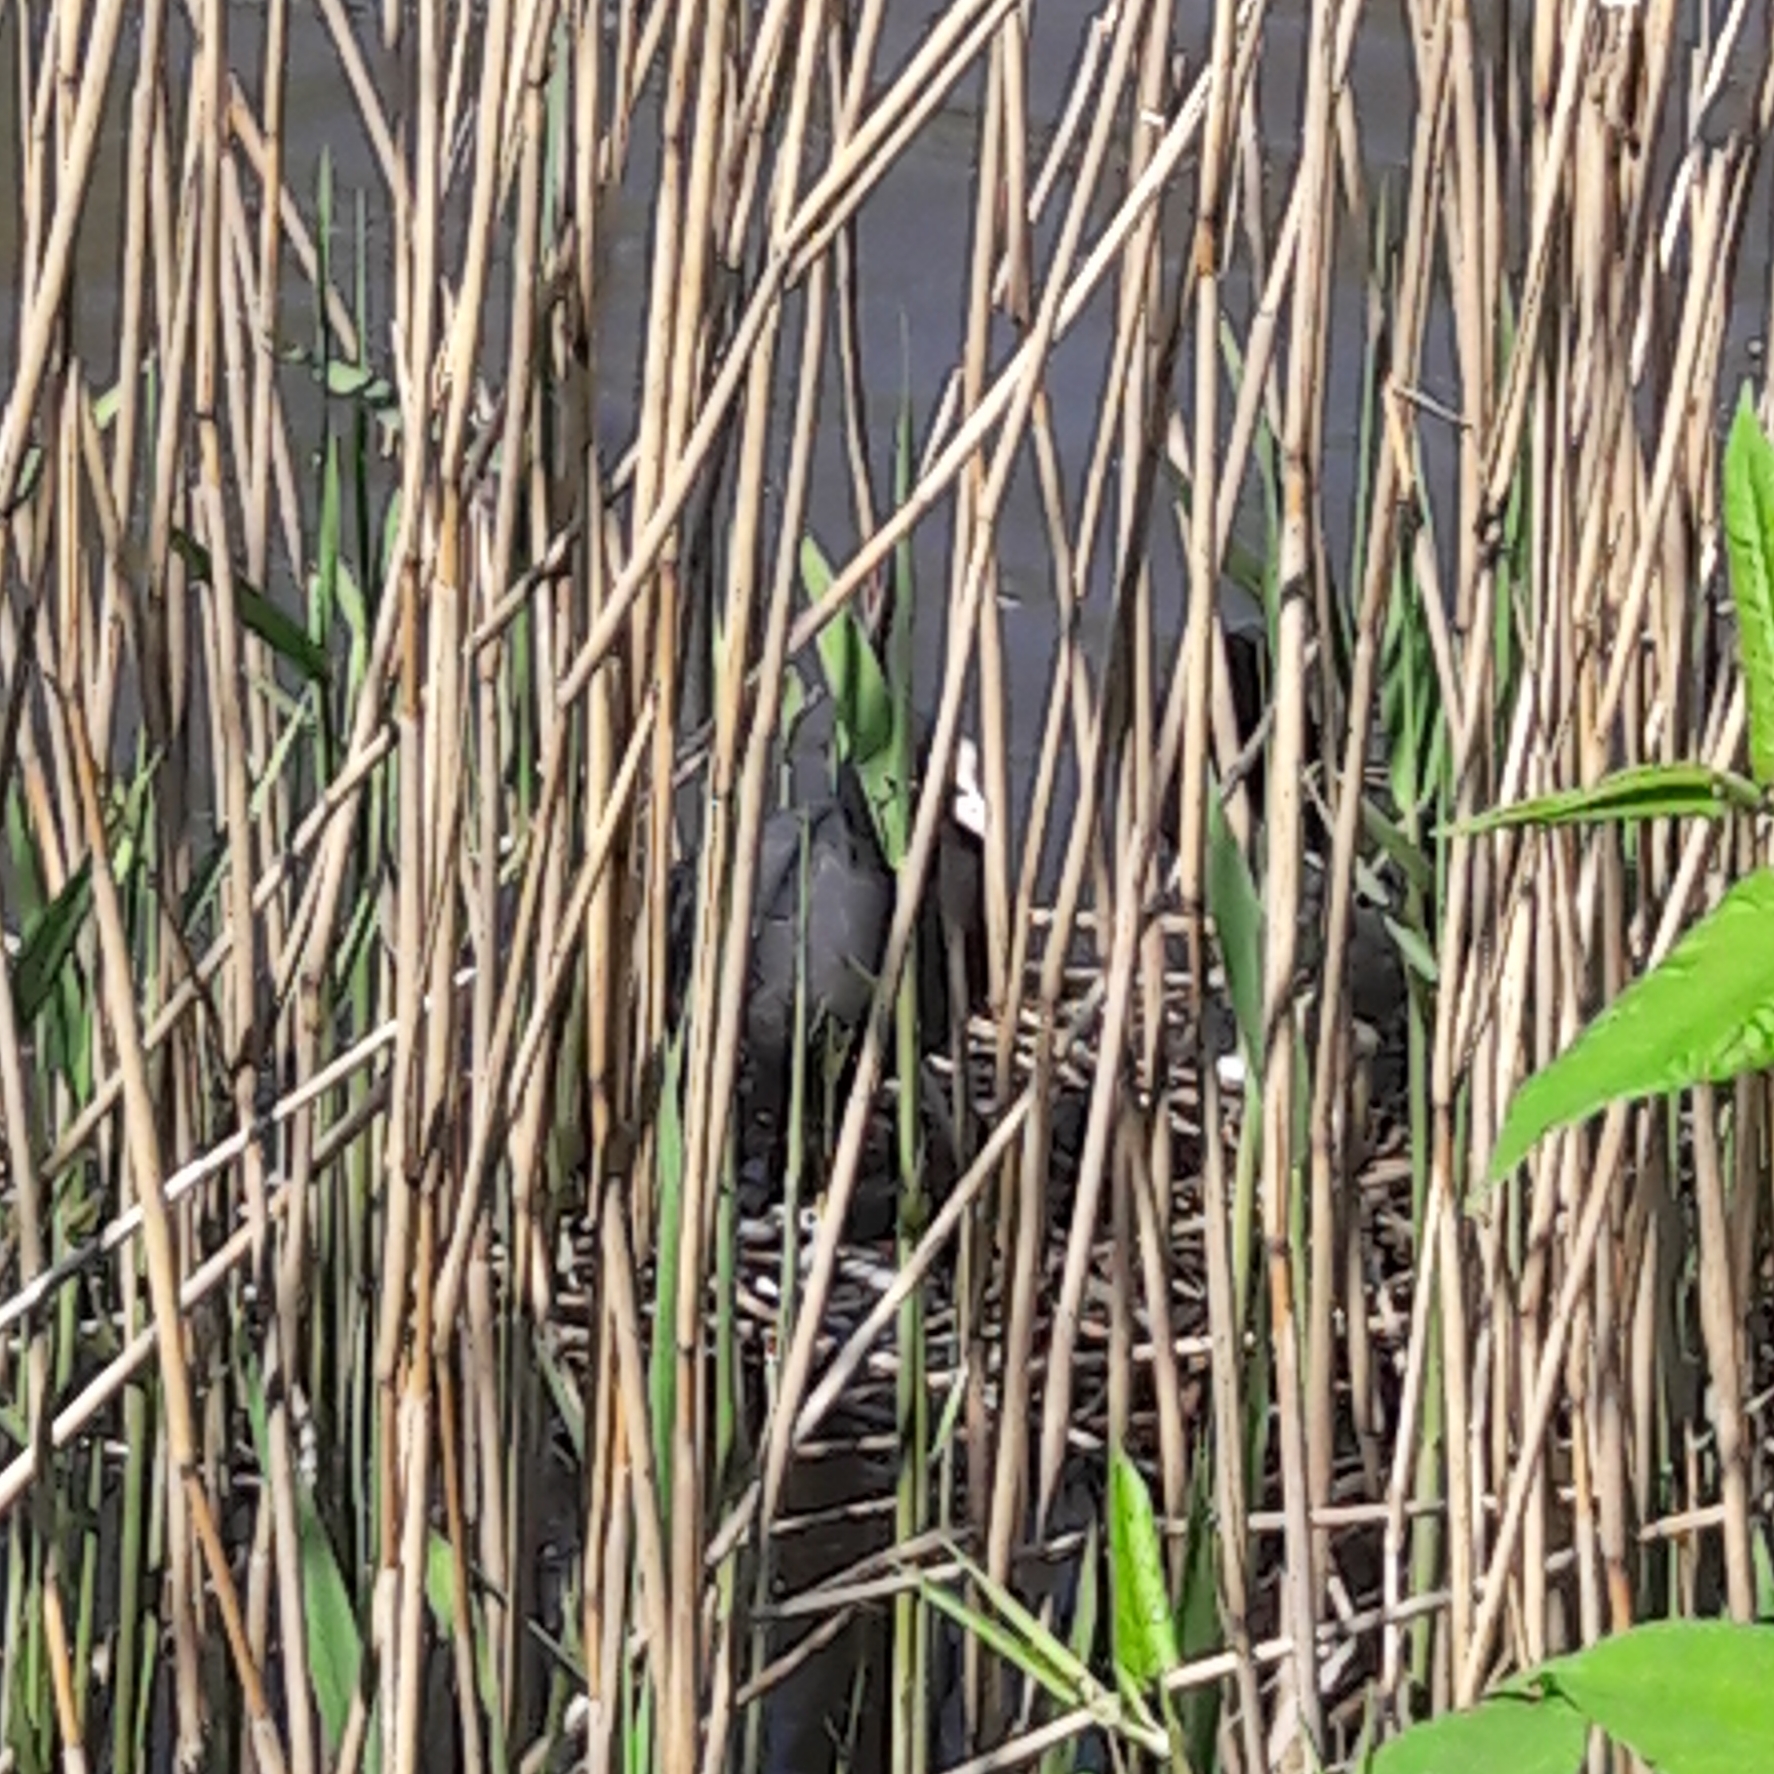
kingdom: Animalia
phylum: Chordata
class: Aves
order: Gruiformes
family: Rallidae
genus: Fulica
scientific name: Fulica atra
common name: Eurasian coot
